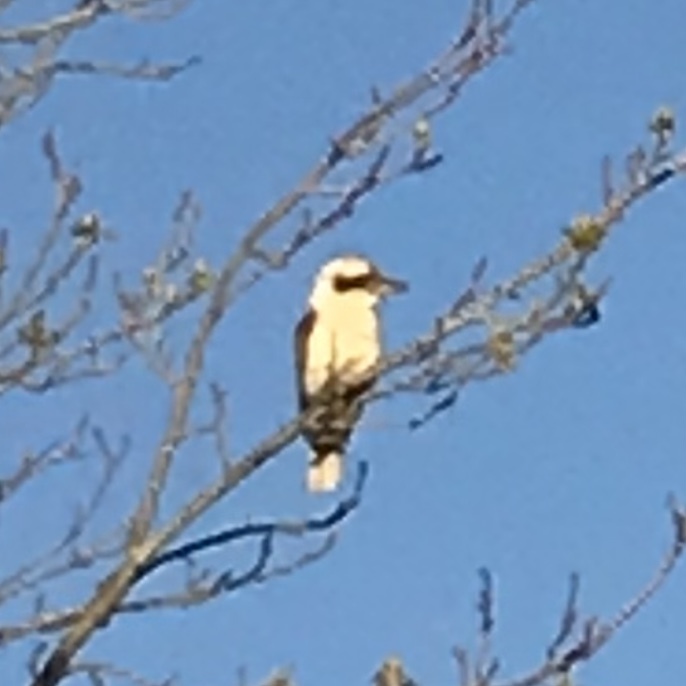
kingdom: Animalia
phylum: Chordata
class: Aves
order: Coraciiformes
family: Alcedinidae
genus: Dacelo
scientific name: Dacelo novaeguineae
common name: Laughing kookaburra
